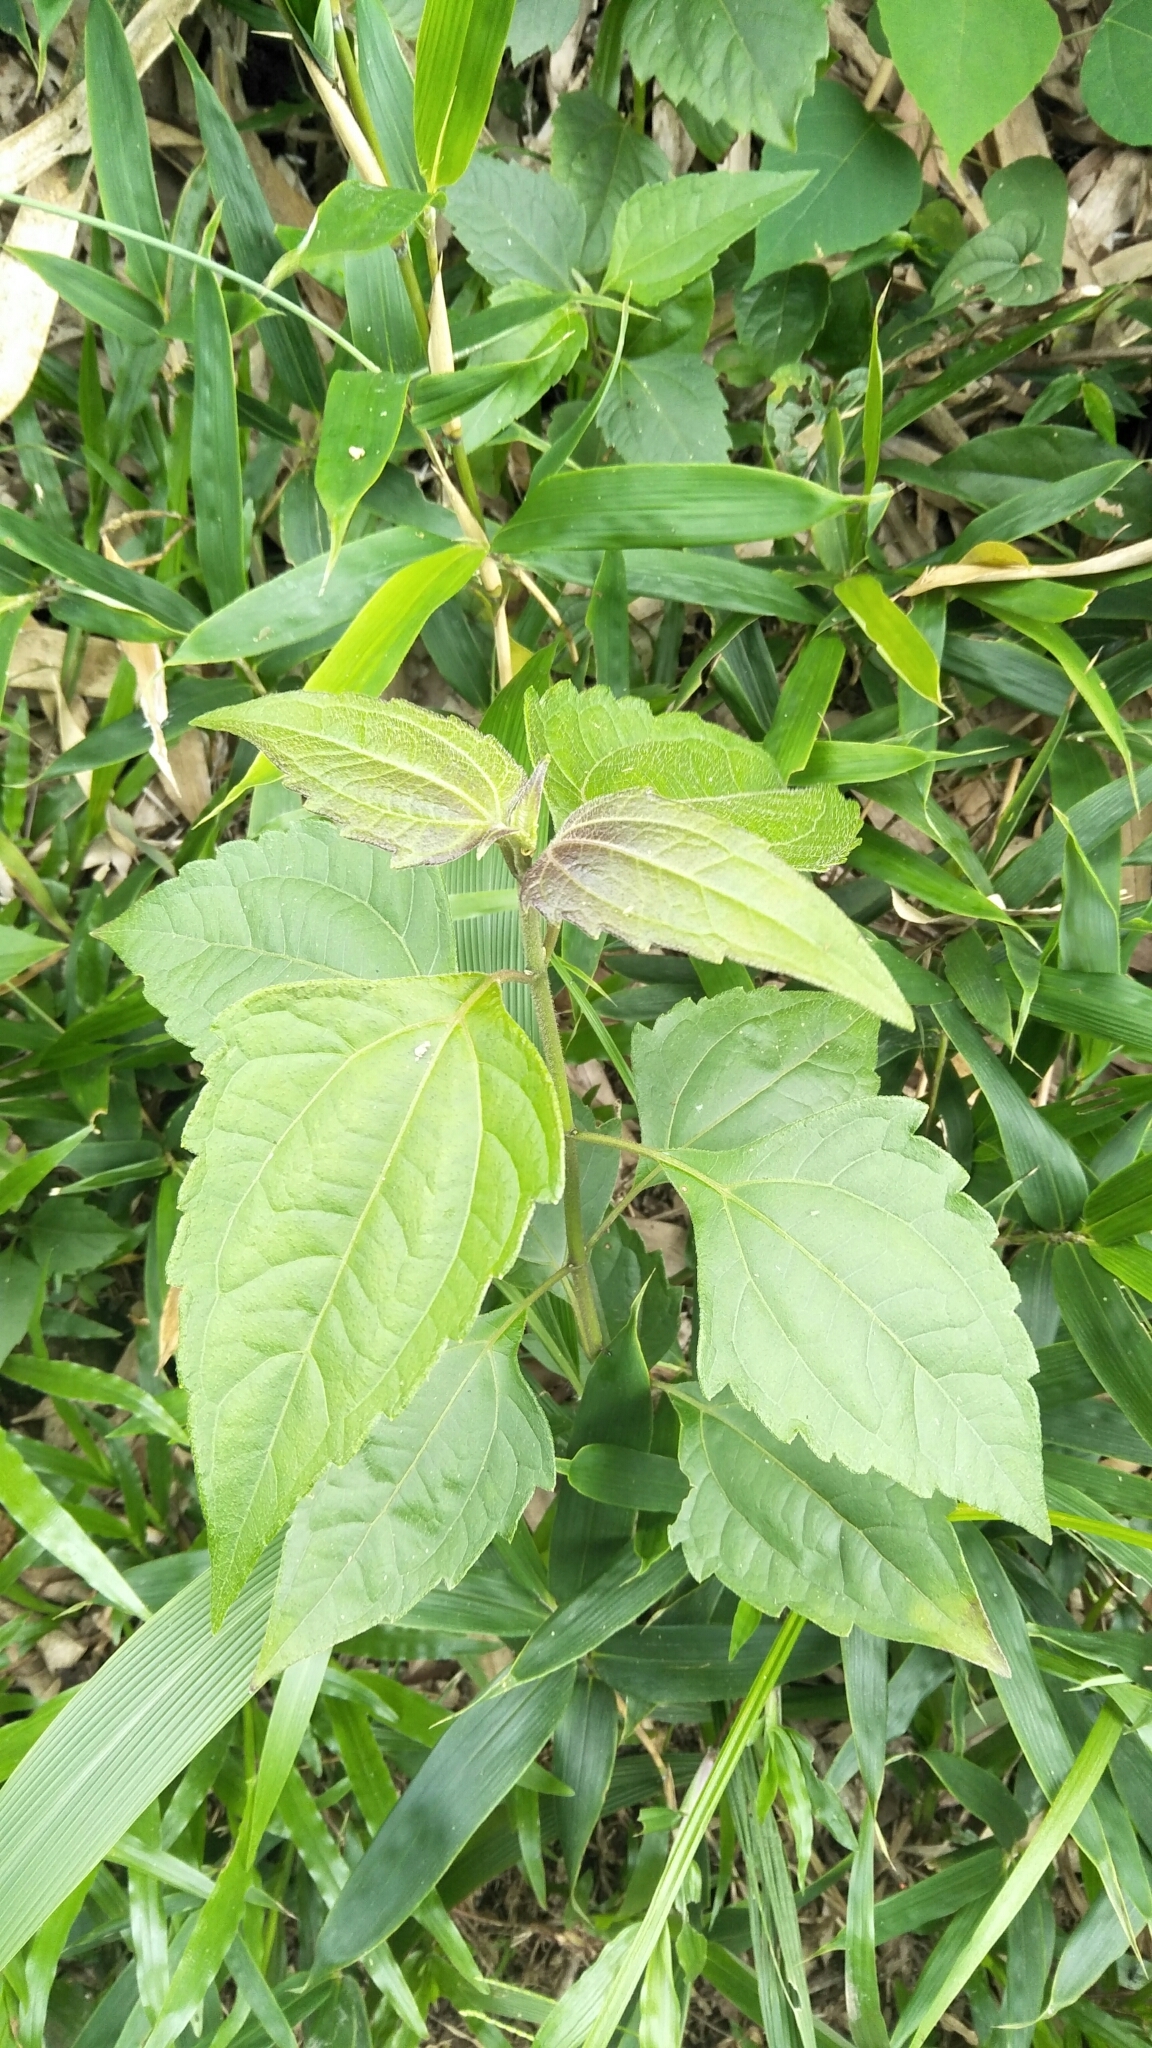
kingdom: Plantae
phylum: Tracheophyta
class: Magnoliopsida
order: Asterales
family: Asteraceae
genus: Chromolaena
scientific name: Chromolaena odorata
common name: Siamweed
